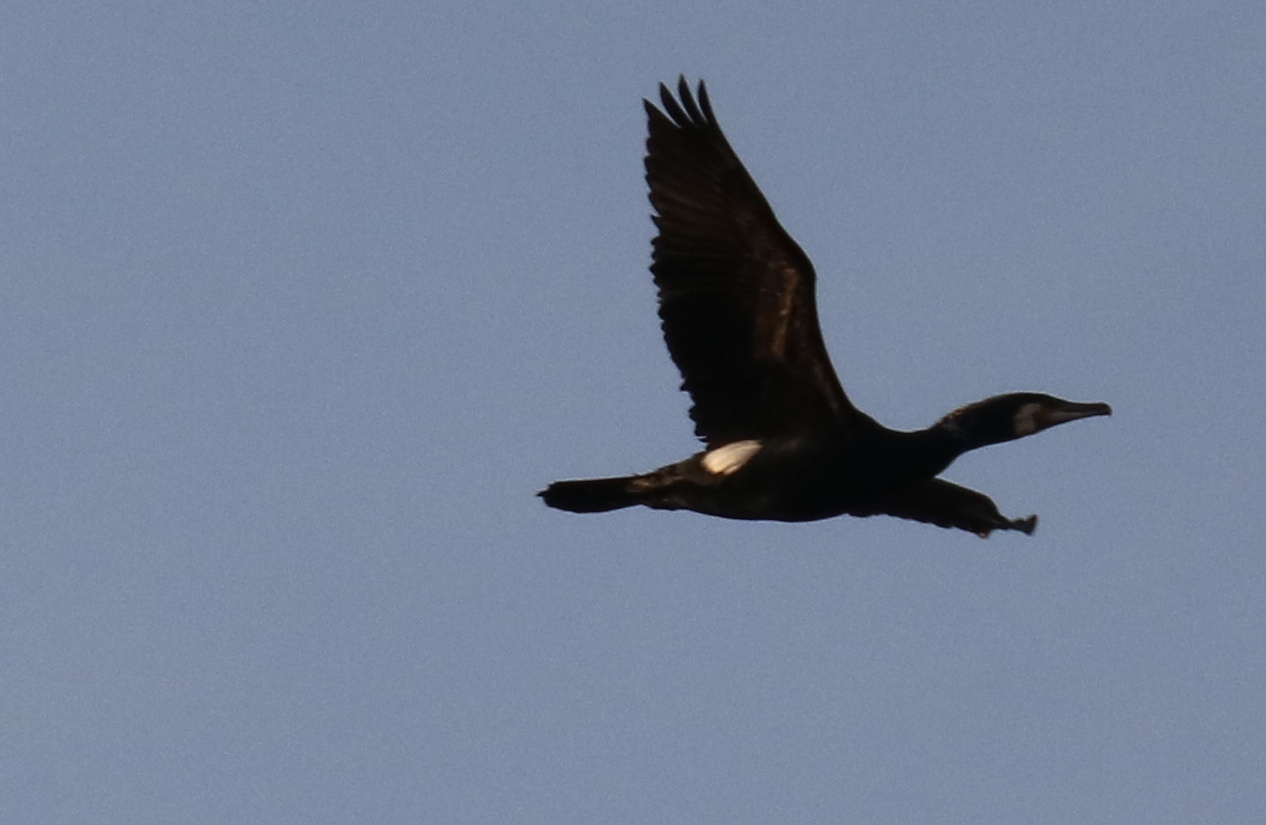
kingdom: Animalia
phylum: Chordata
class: Aves
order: Suliformes
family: Phalacrocoracidae
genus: Phalacrocorax
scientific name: Phalacrocorax carbo
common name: Great cormorant
